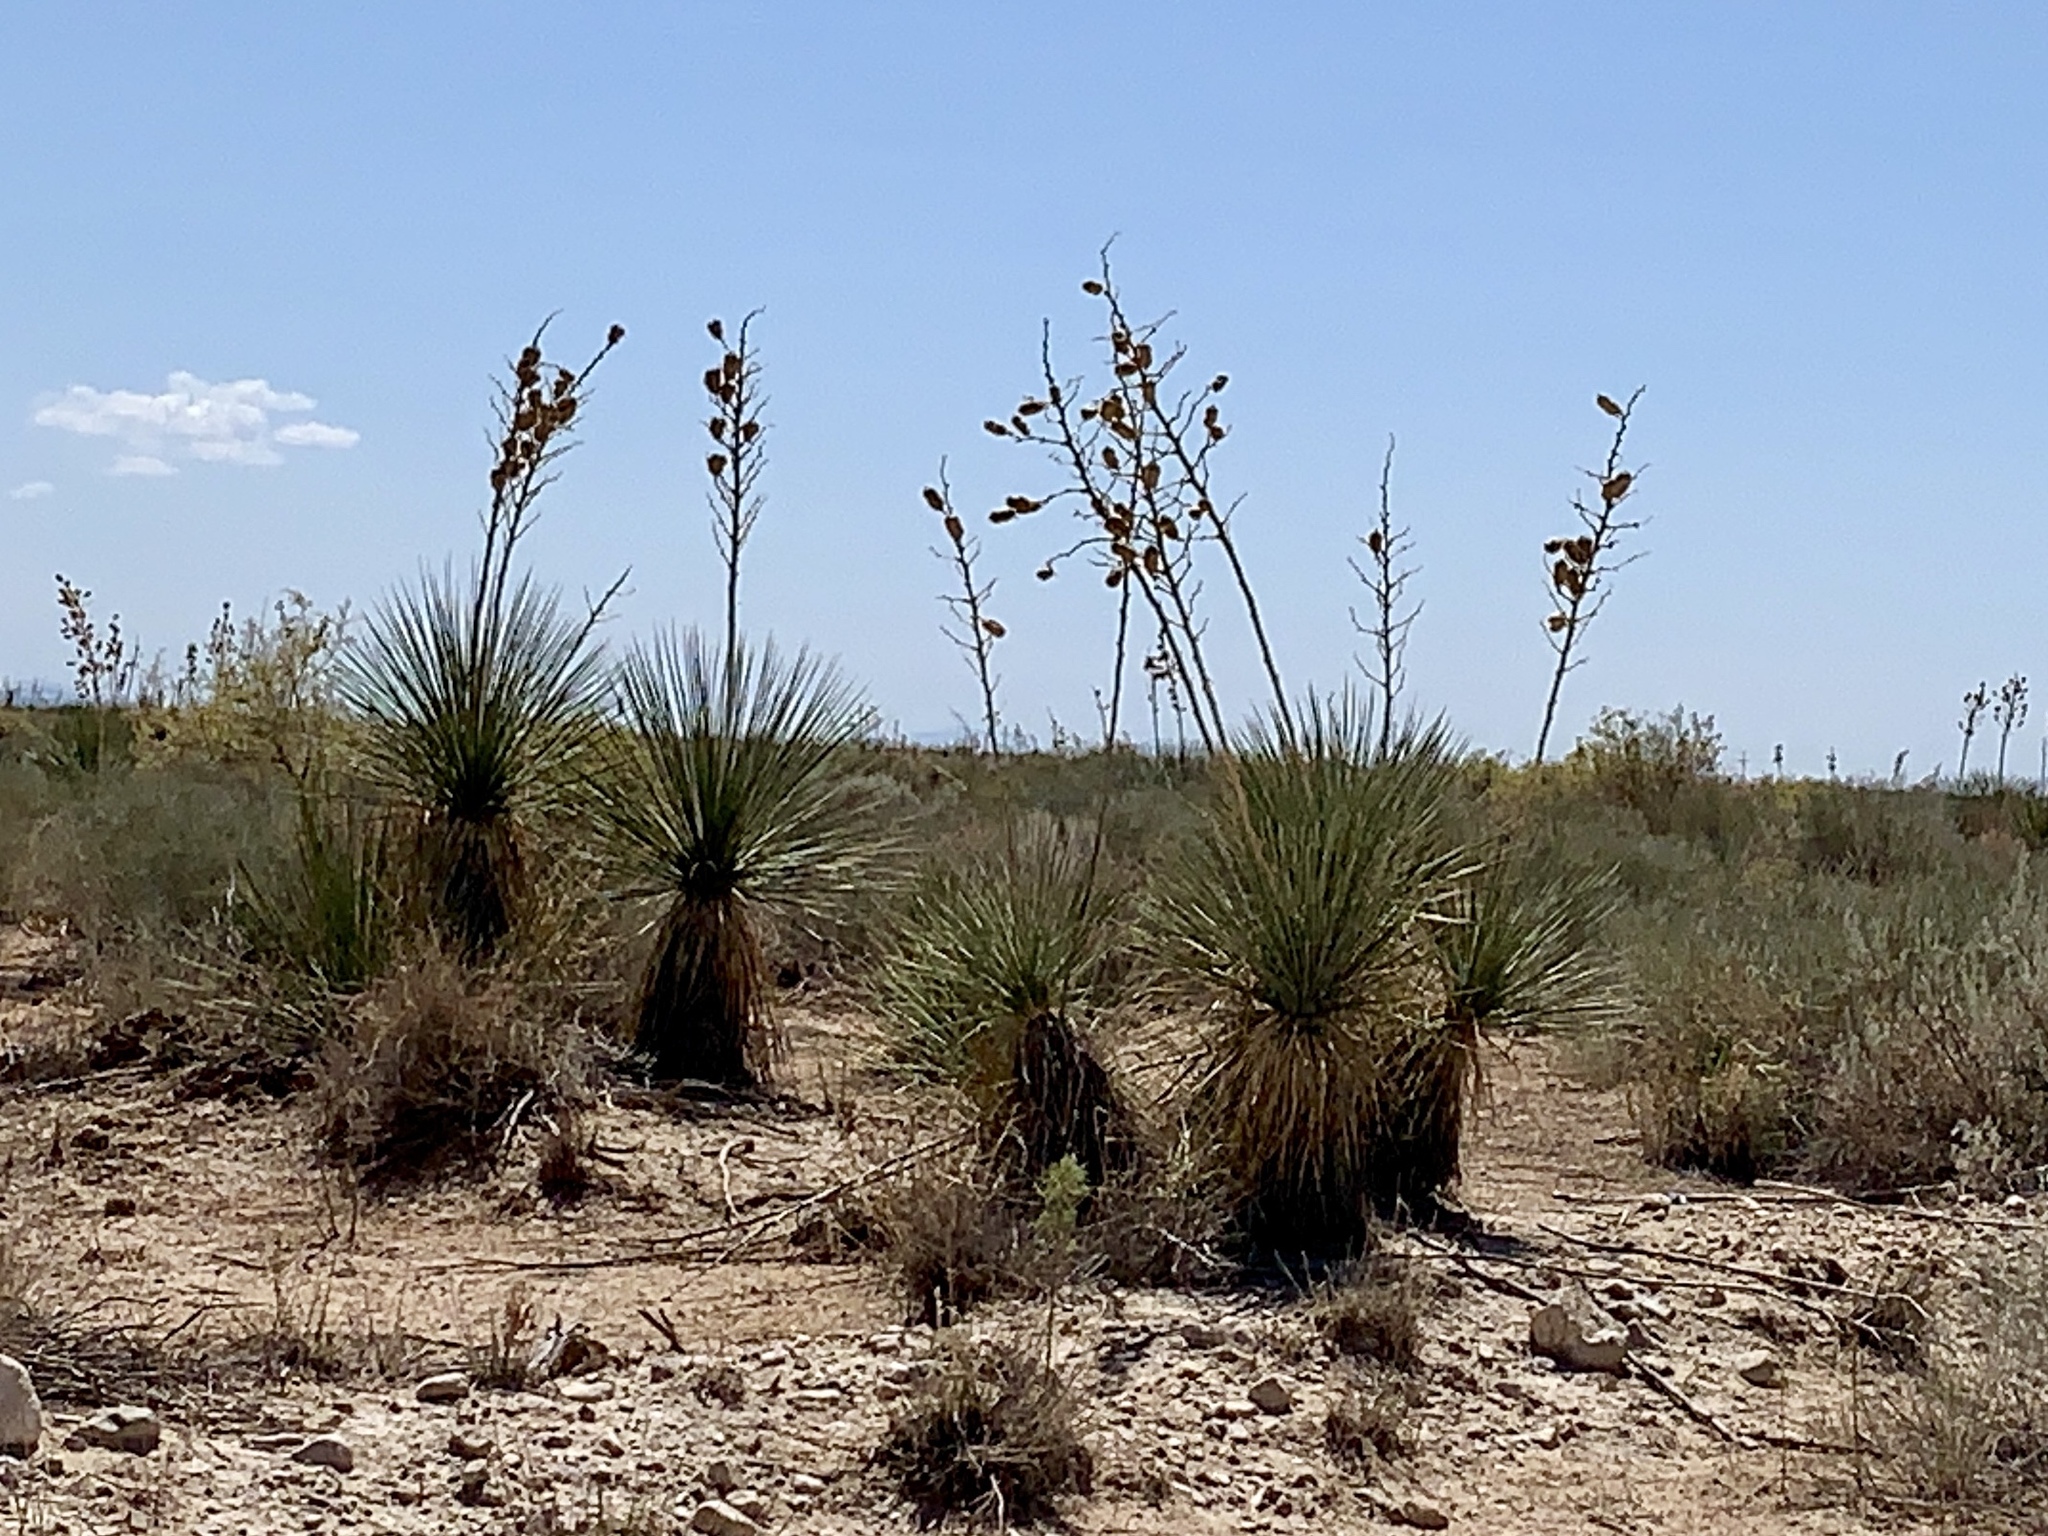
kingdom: Plantae
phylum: Tracheophyta
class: Liliopsida
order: Asparagales
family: Asparagaceae
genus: Yucca
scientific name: Yucca elata
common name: Palmella
